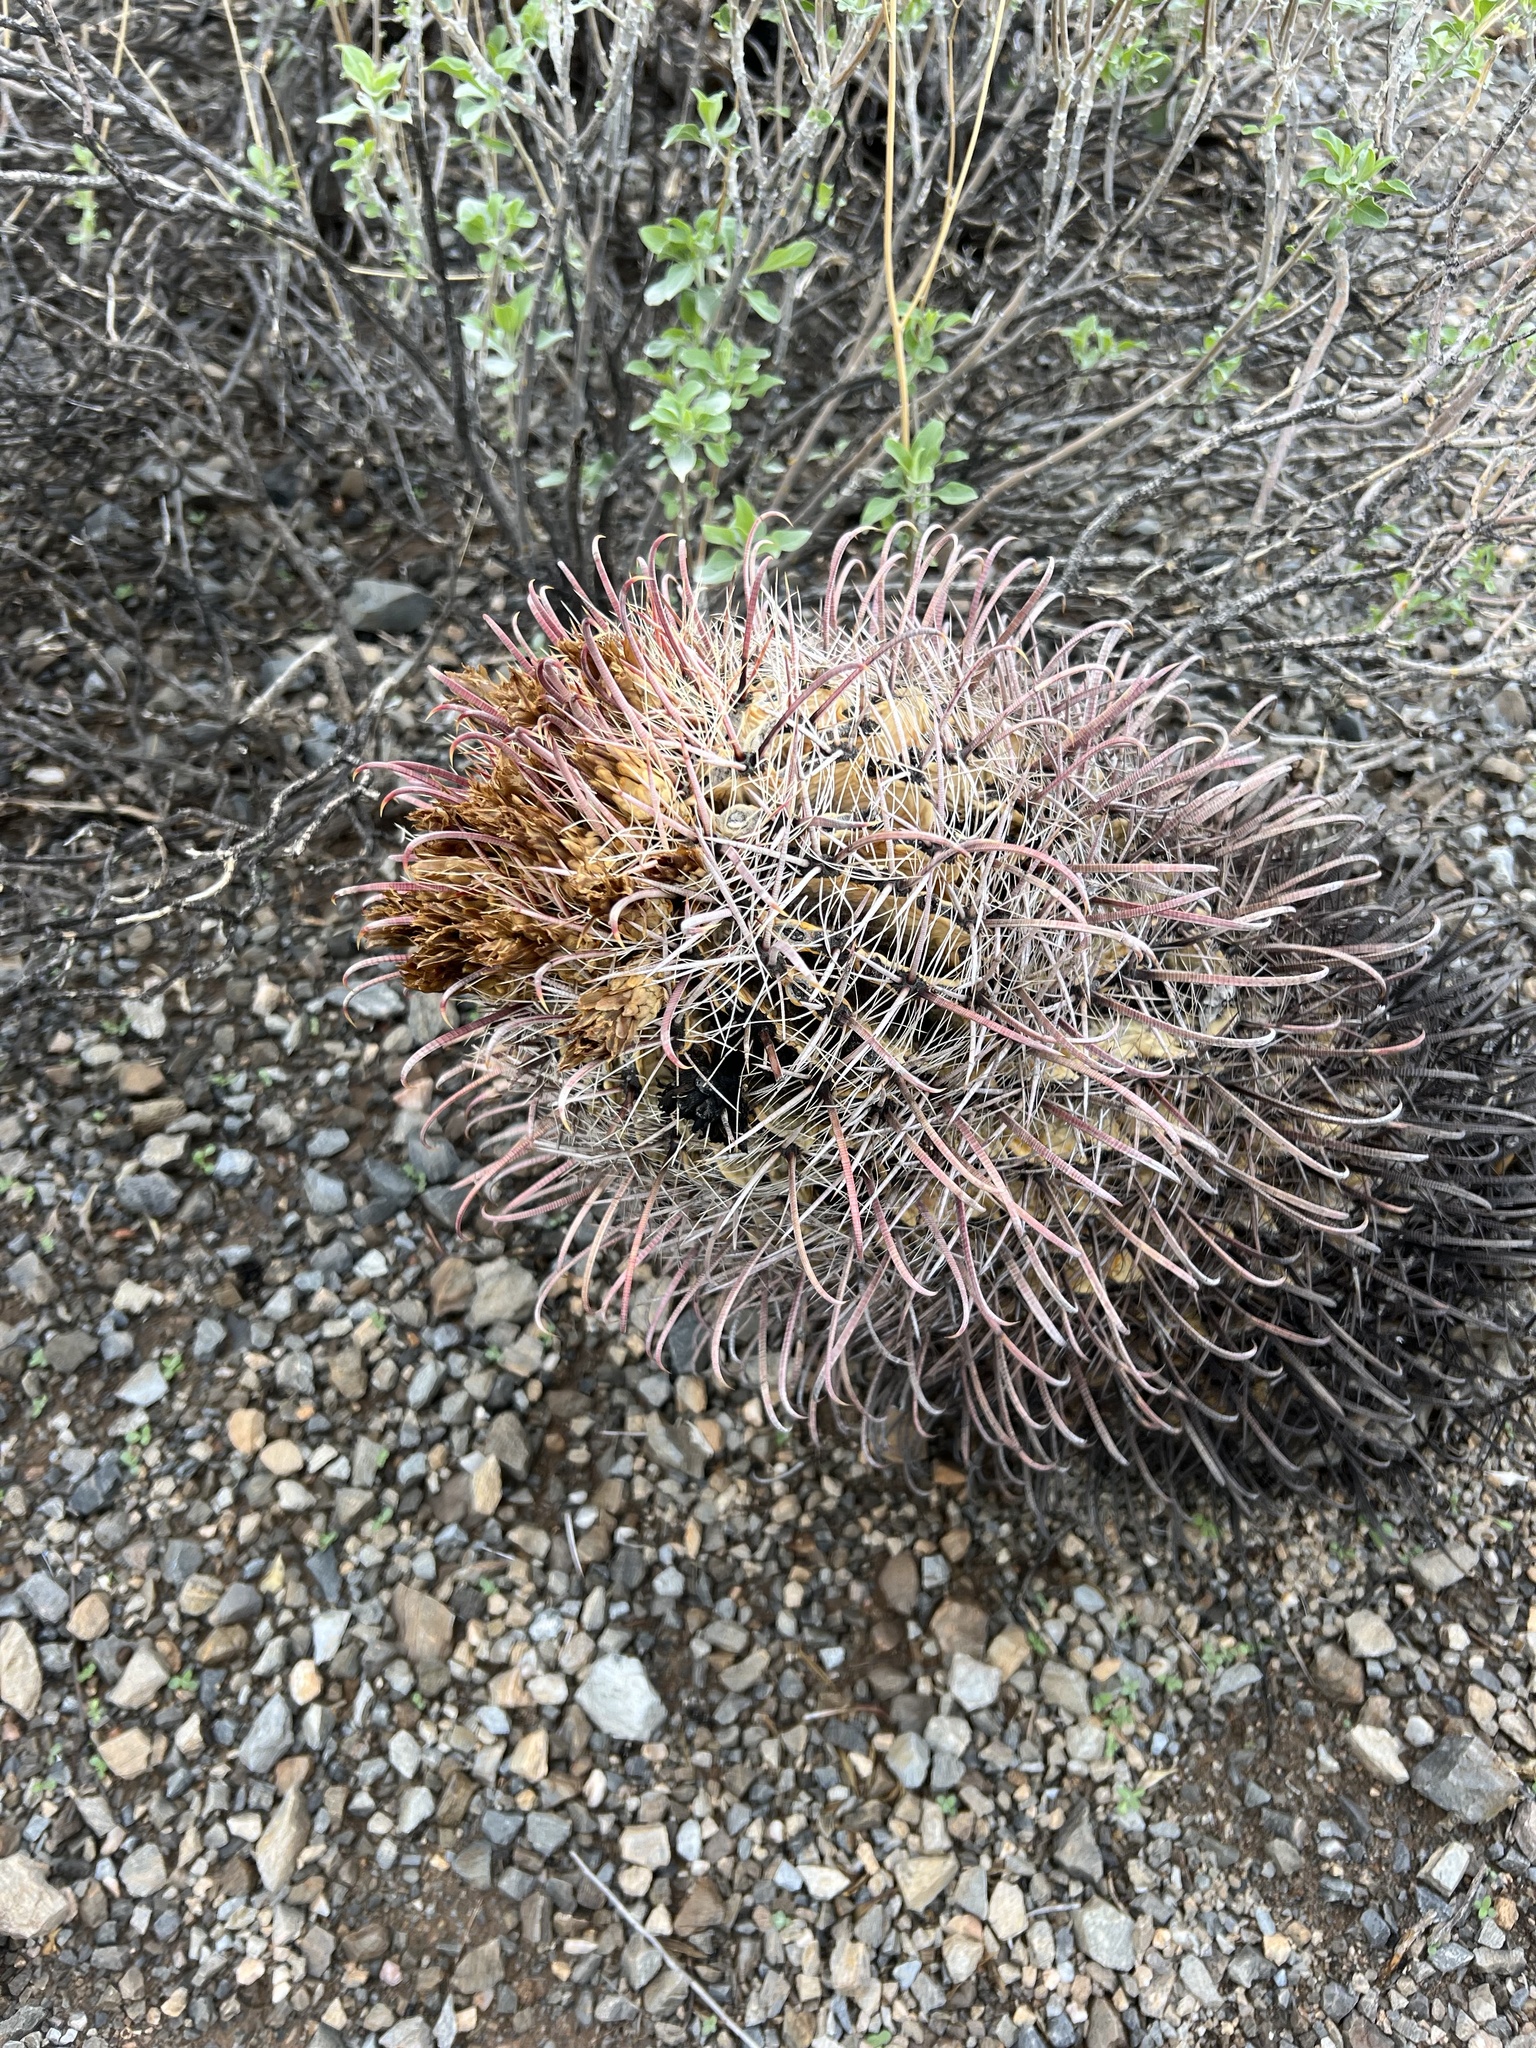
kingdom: Plantae
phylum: Tracheophyta
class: Magnoliopsida
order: Caryophyllales
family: Cactaceae
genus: Ferocactus
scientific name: Ferocactus wislizeni
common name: Candy barrel cactus
